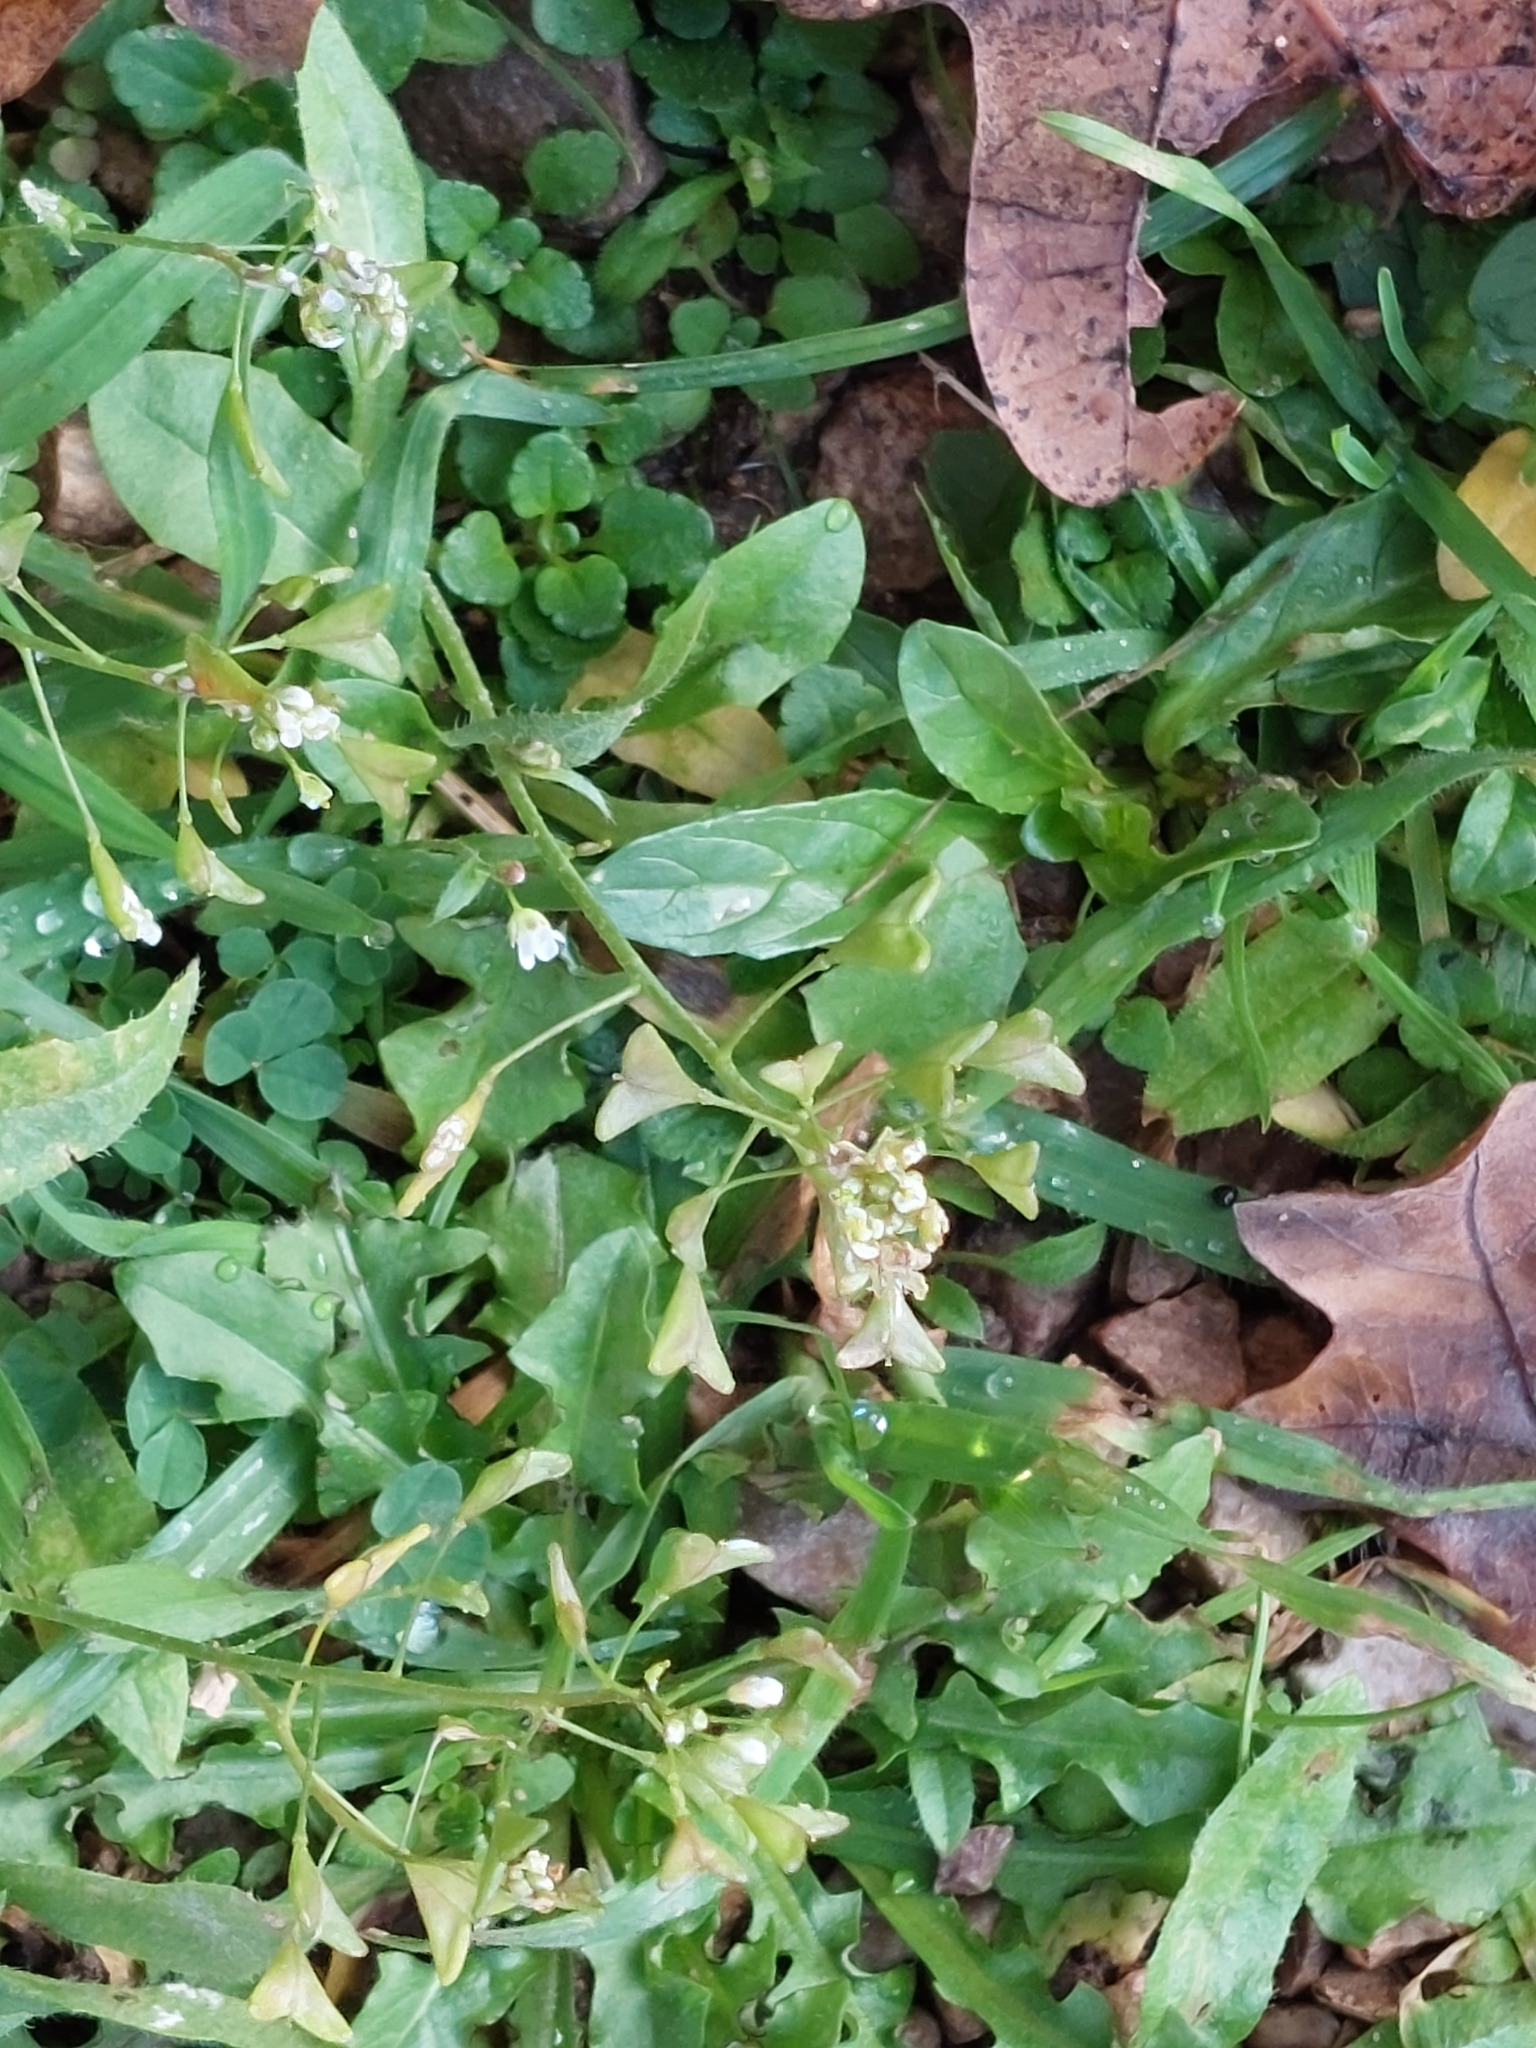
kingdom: Plantae
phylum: Tracheophyta
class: Magnoliopsida
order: Brassicales
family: Brassicaceae
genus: Capsella
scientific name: Capsella bursa-pastoris
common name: Shepherd's purse
